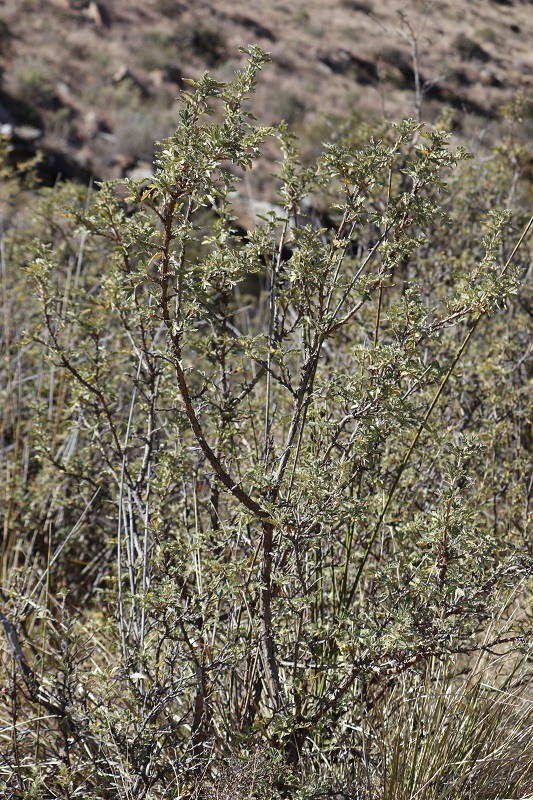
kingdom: Plantae
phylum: Tracheophyta
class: Magnoliopsida
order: Rosales
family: Rosaceae
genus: Leucosidea
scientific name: Leucosidea sericea
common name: Oldwood
